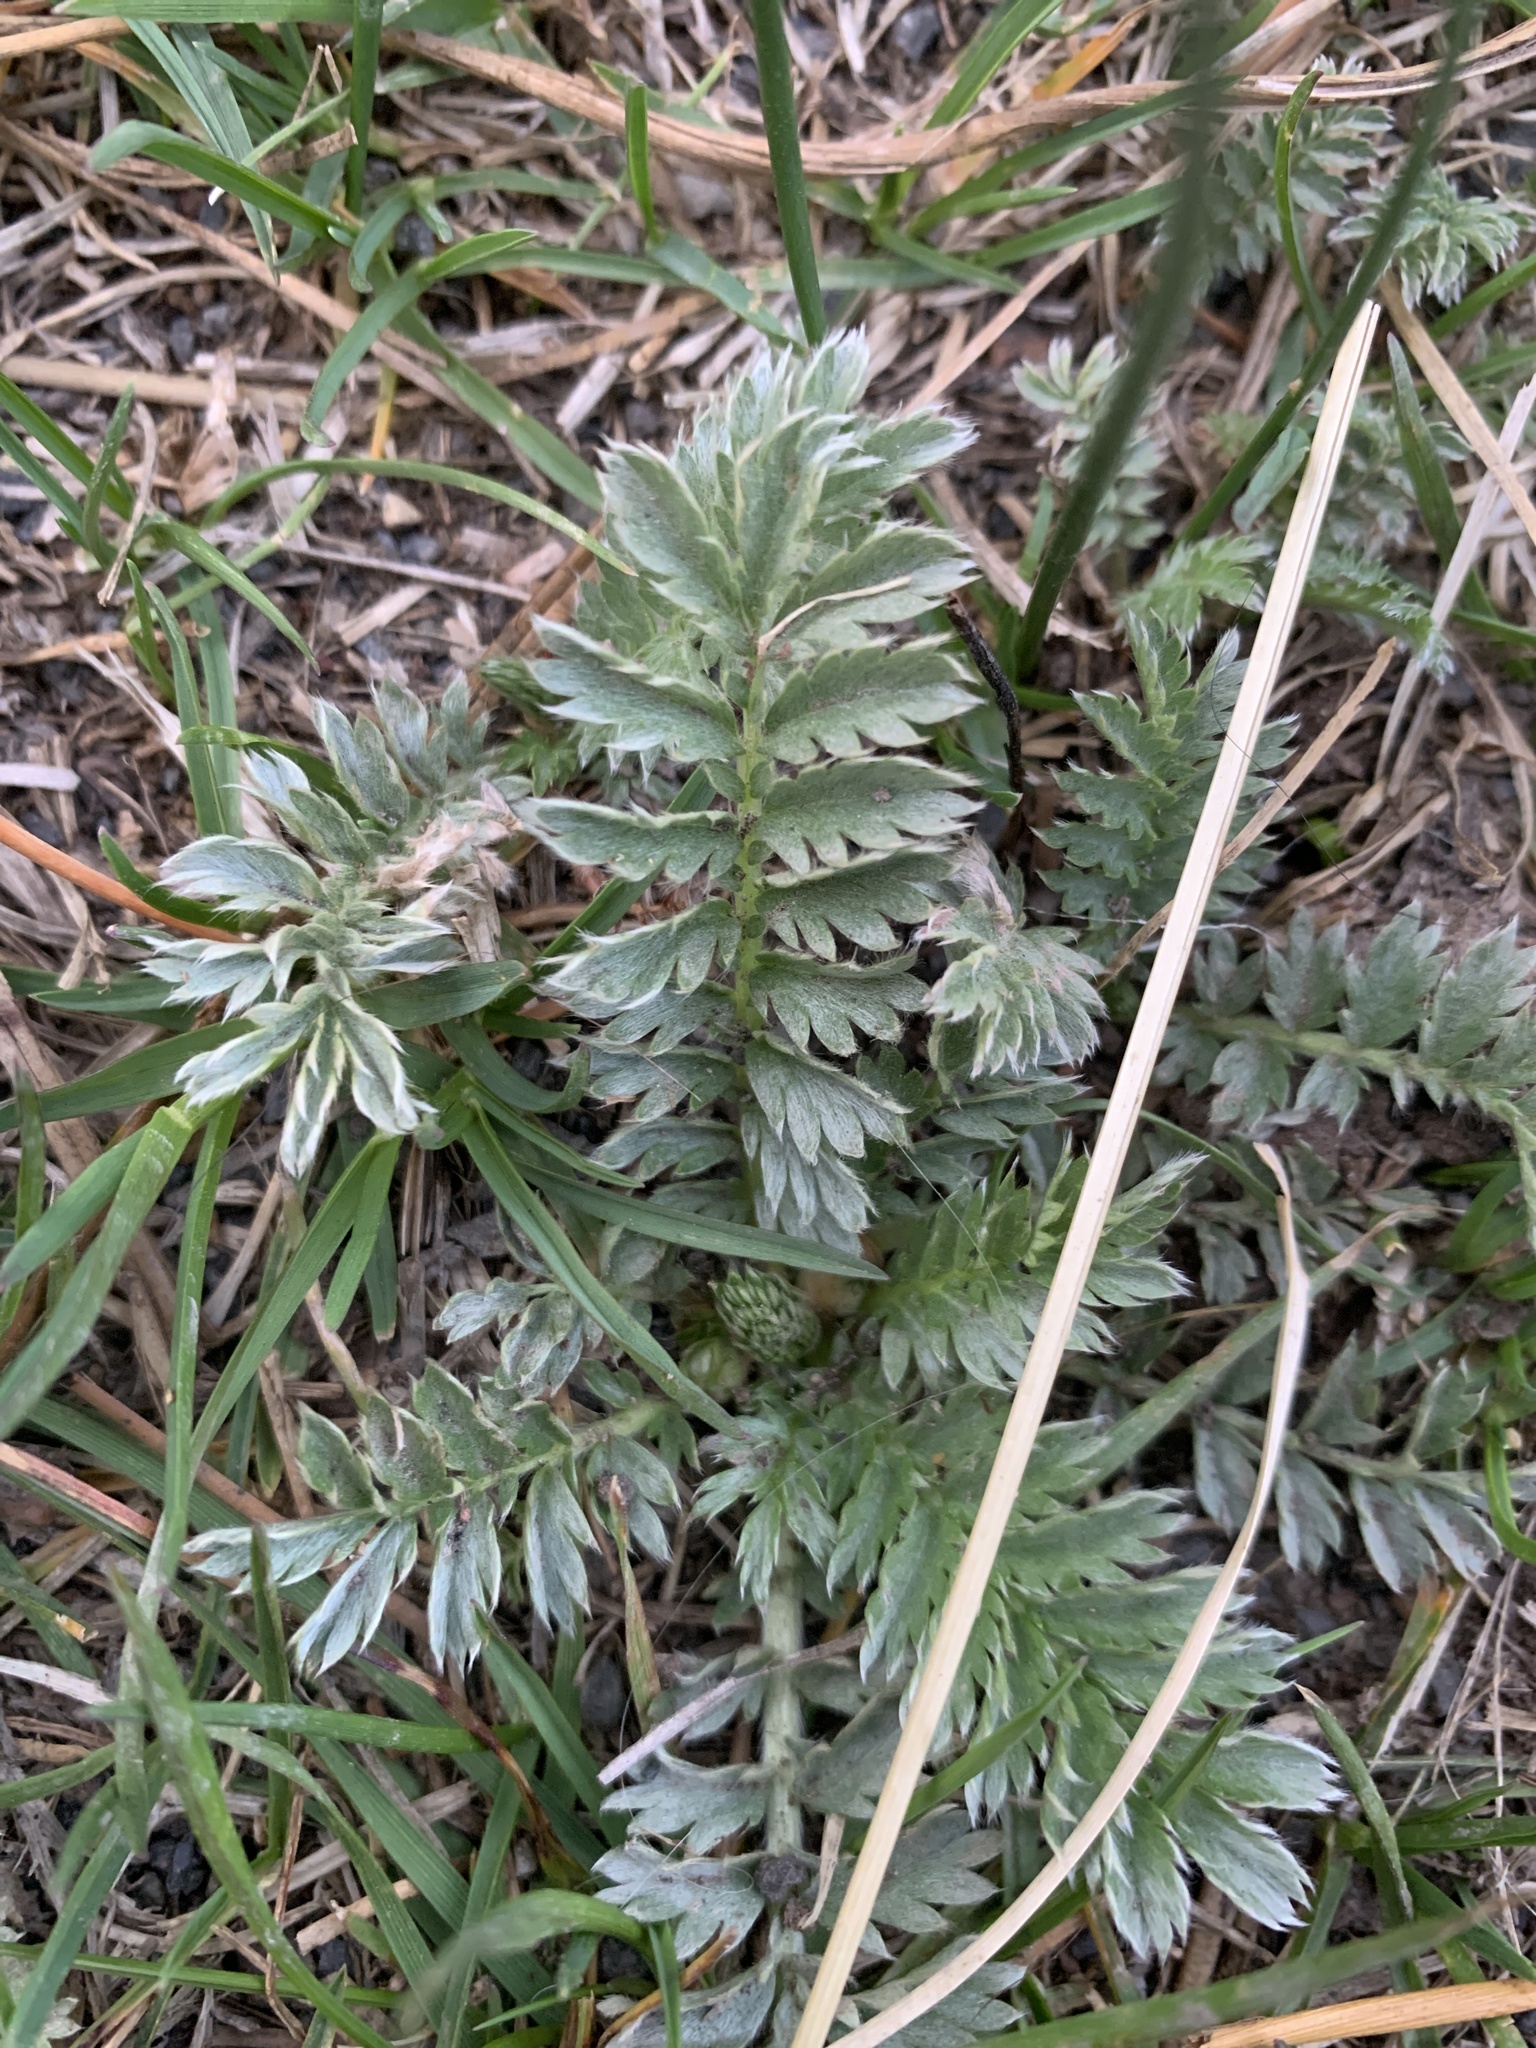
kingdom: Plantae
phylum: Tracheophyta
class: Magnoliopsida
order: Rosales
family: Rosaceae
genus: Argentina
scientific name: Argentina anserina
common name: Common silverweed
